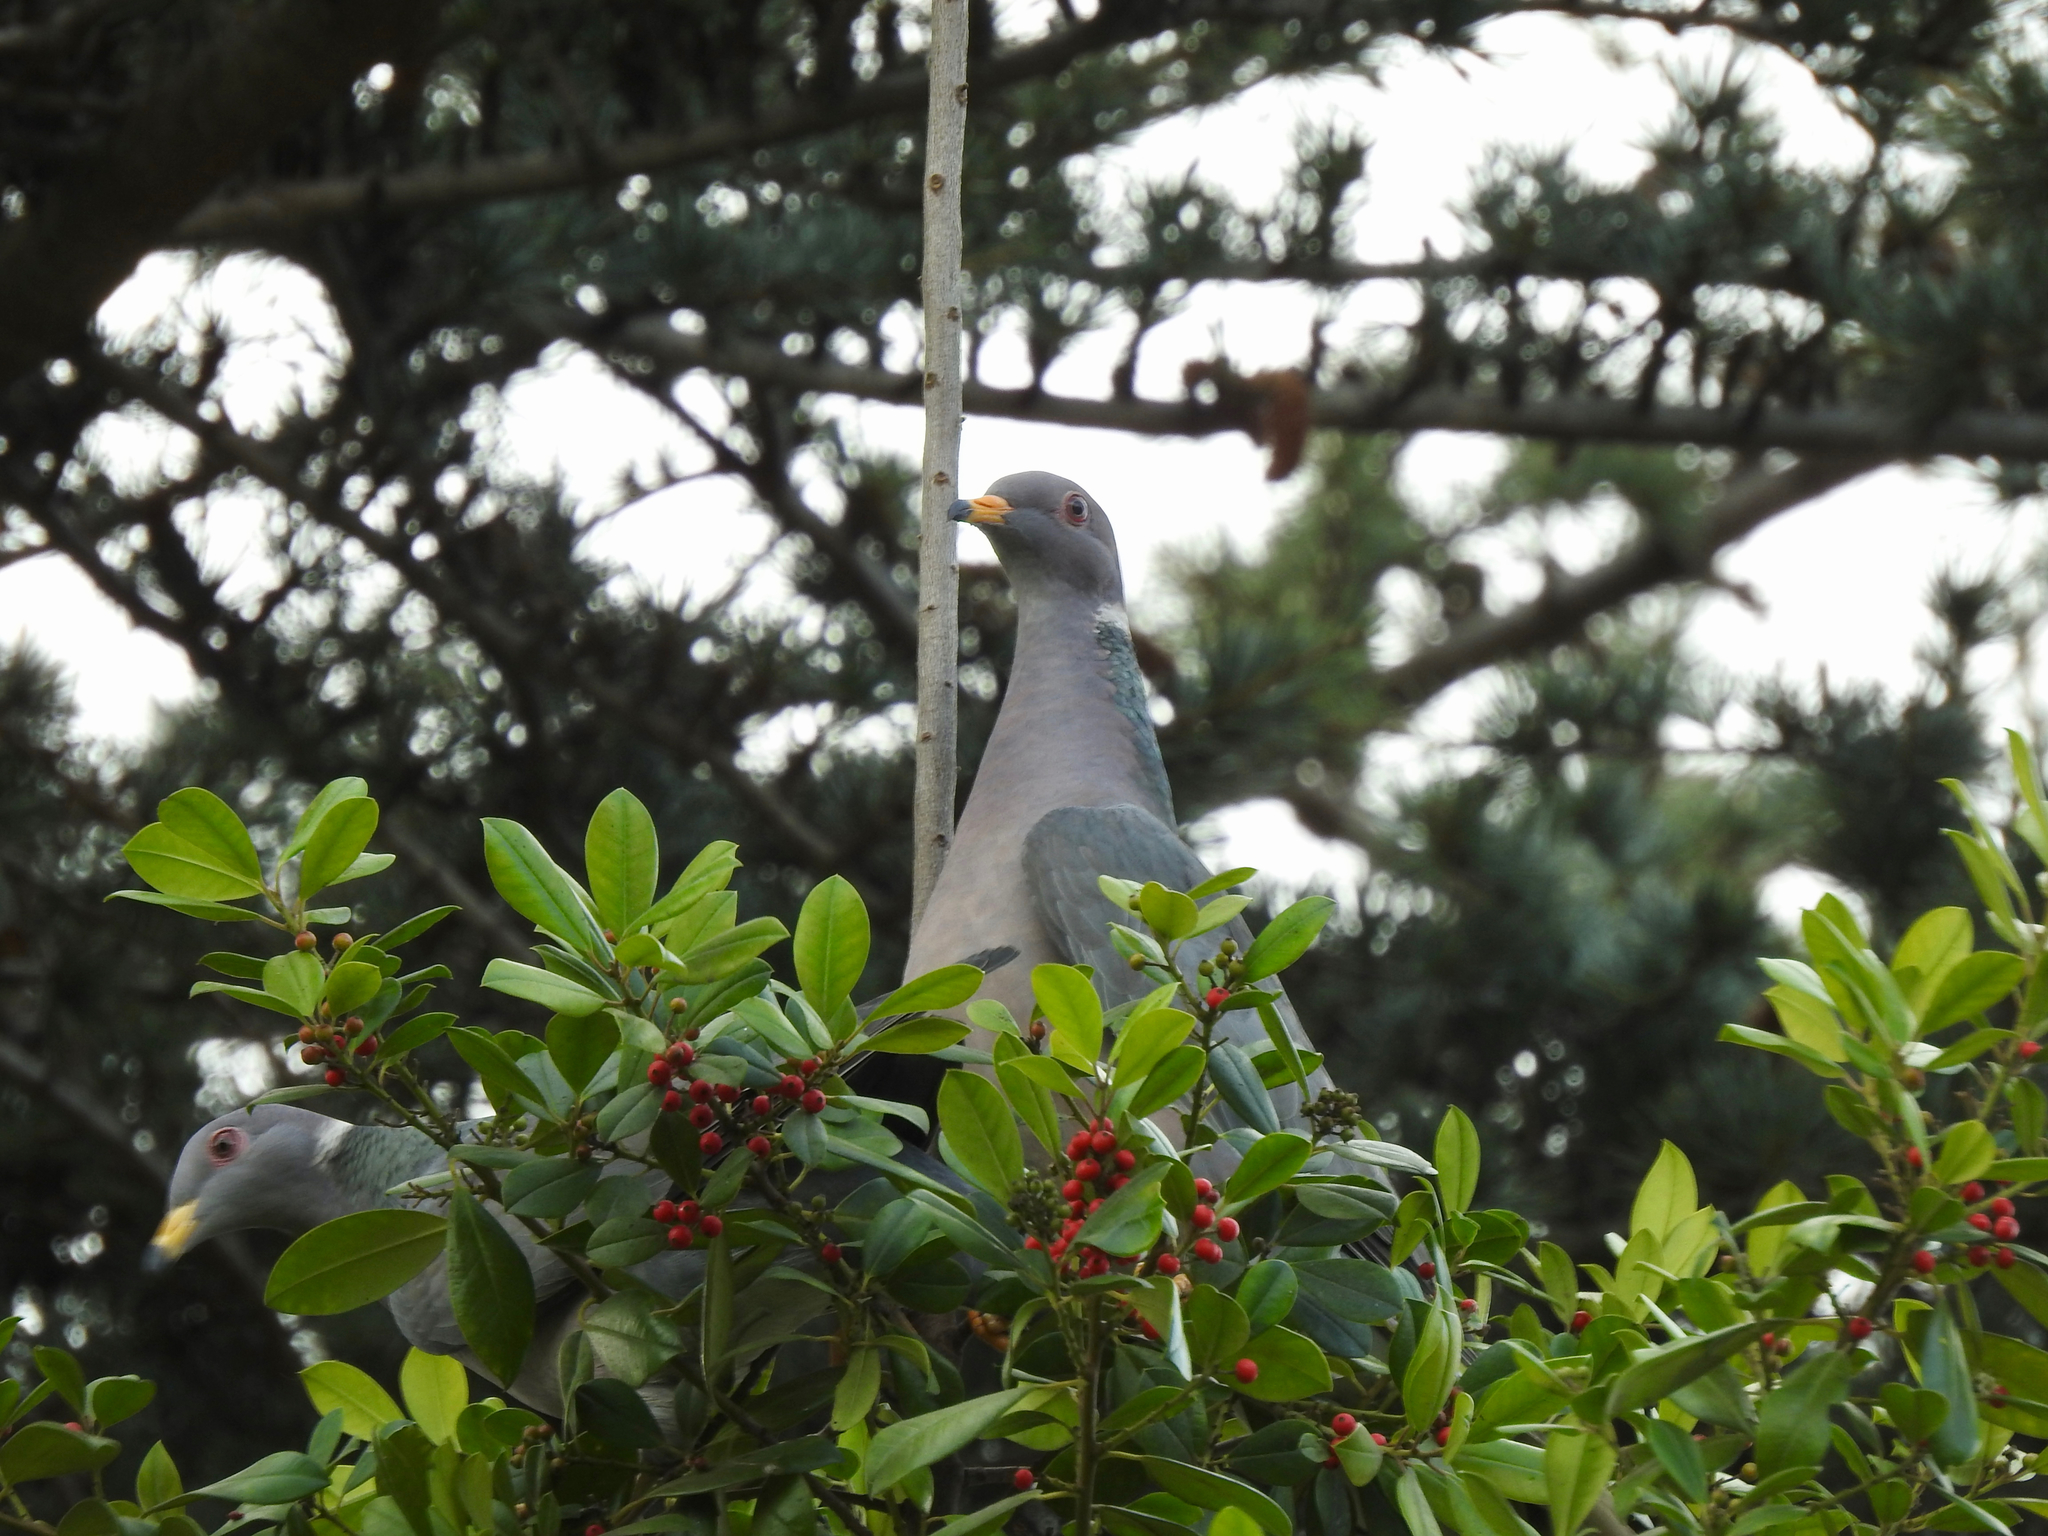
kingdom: Animalia
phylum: Chordata
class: Aves
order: Columbiformes
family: Columbidae
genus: Patagioenas
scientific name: Patagioenas fasciata
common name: Band-tailed pigeon
